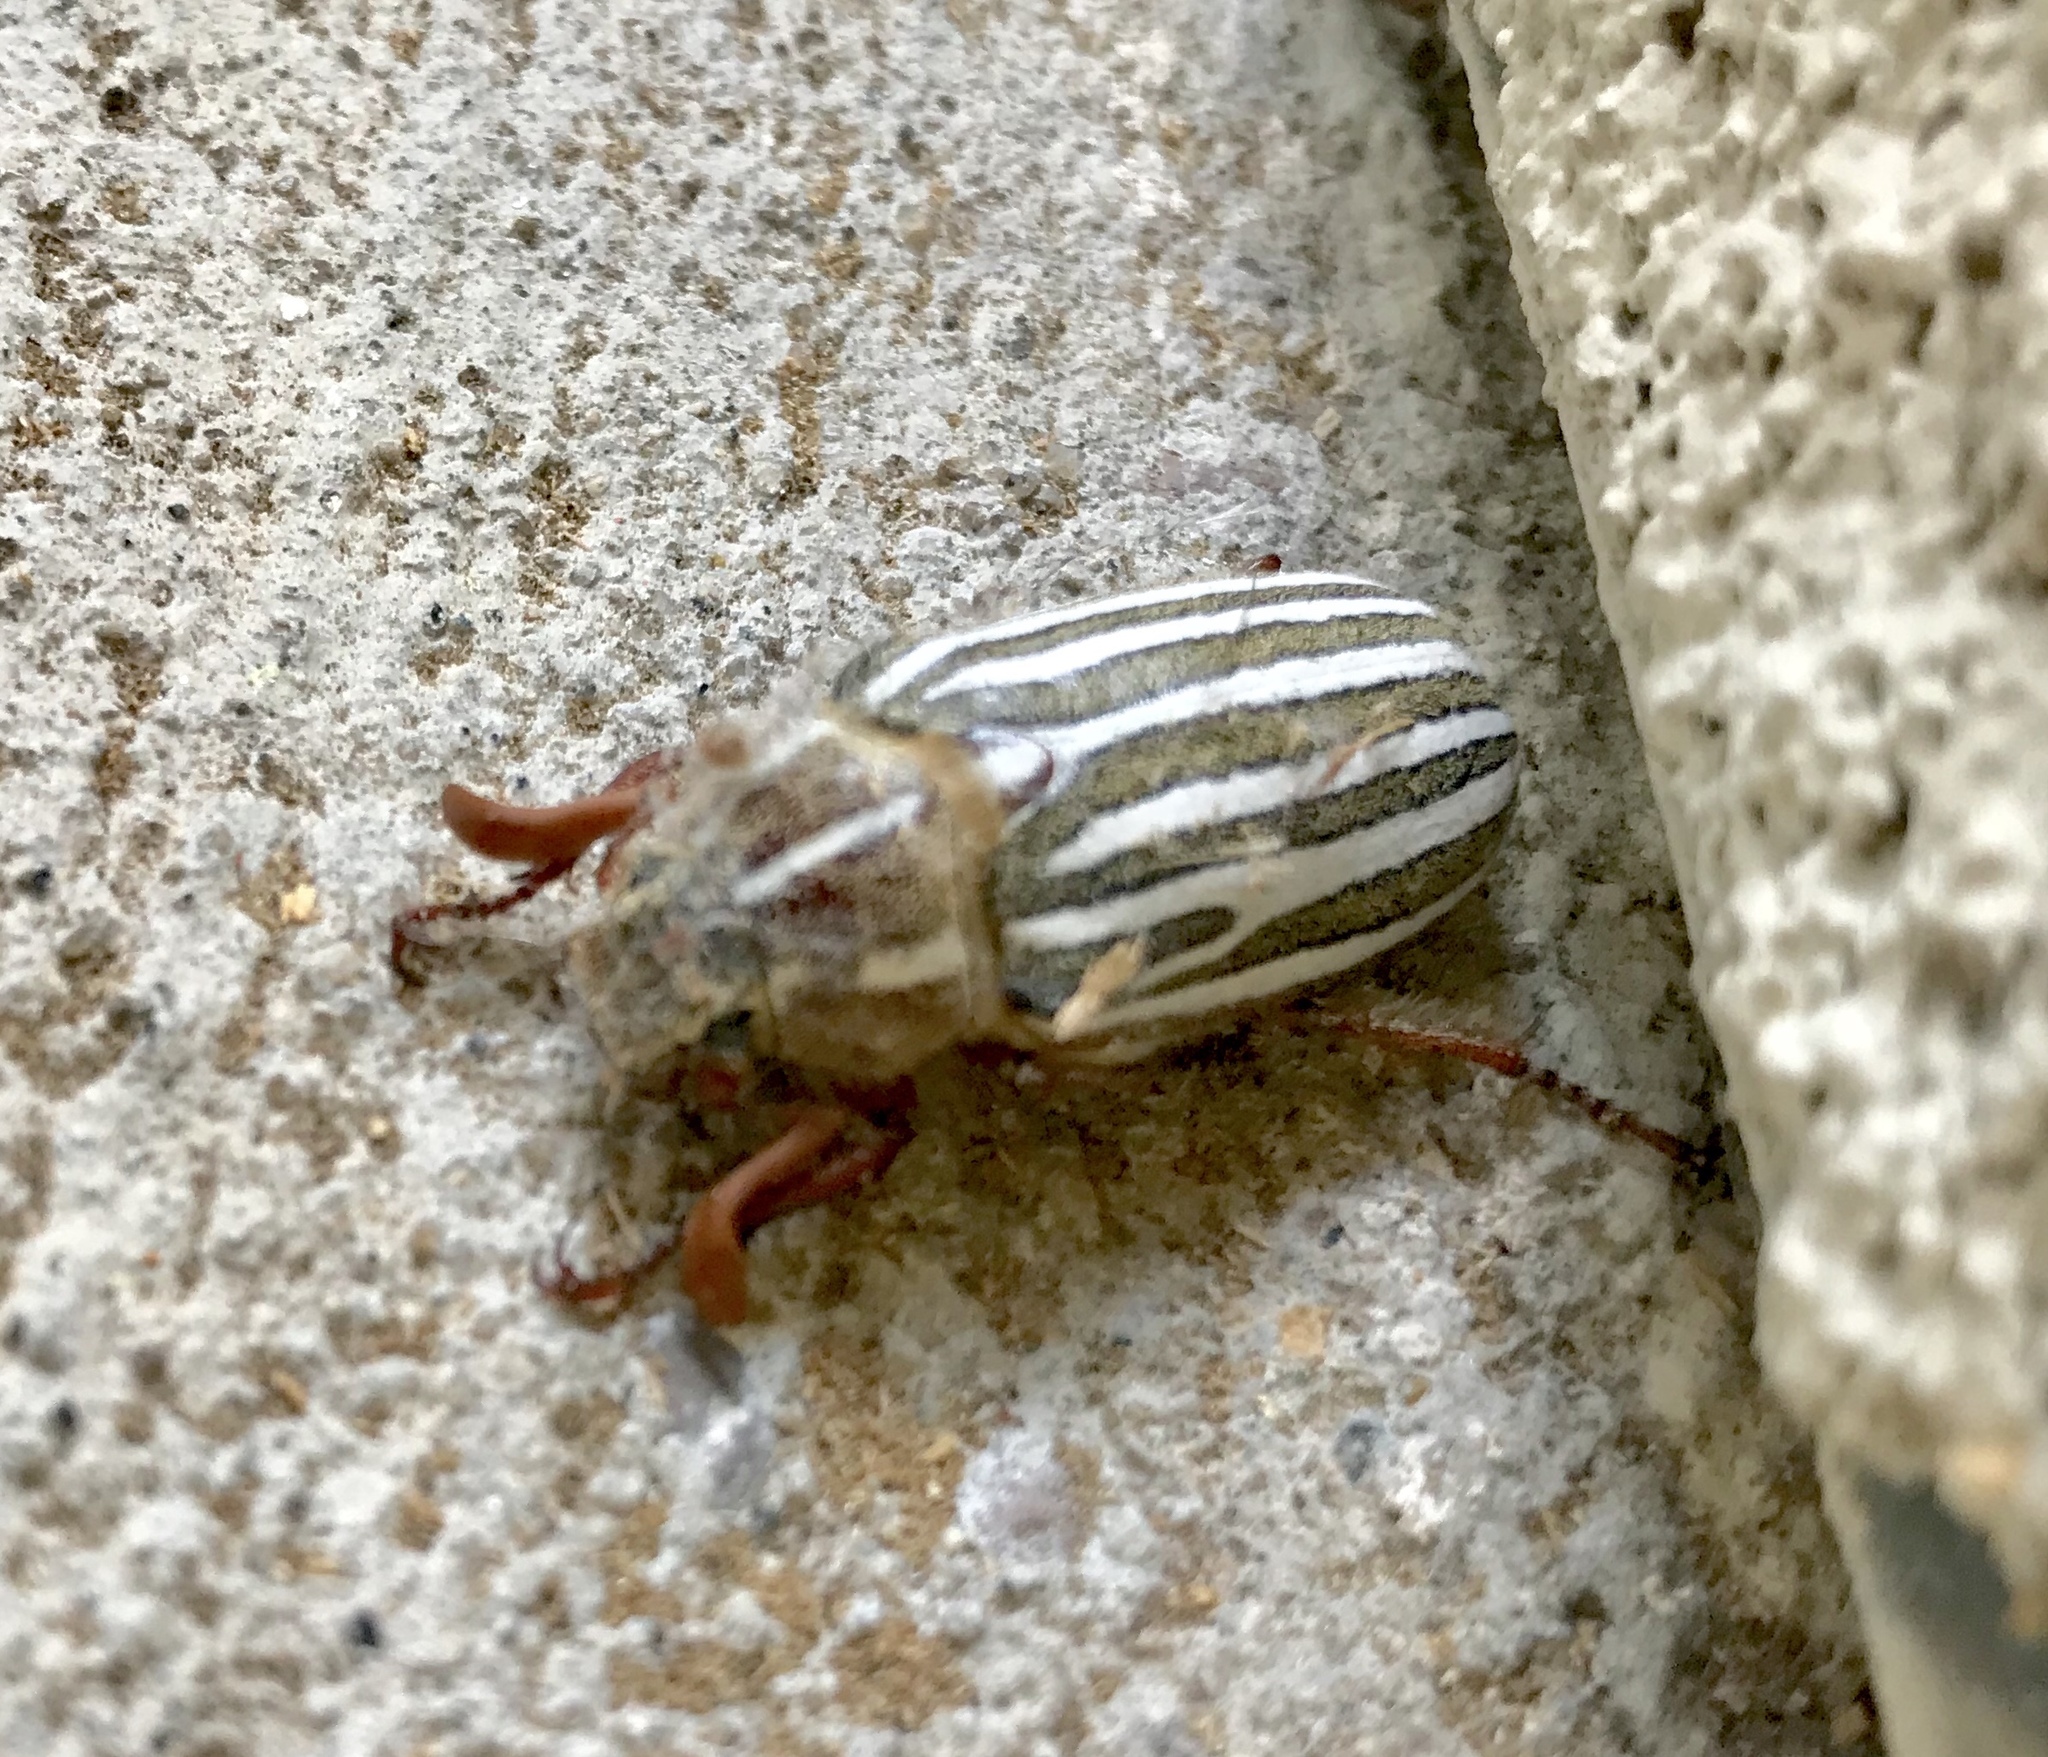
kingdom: Animalia
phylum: Arthropoda
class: Insecta
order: Coleoptera
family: Scarabaeidae
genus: Polyphylla
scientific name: Polyphylla decemlineata
